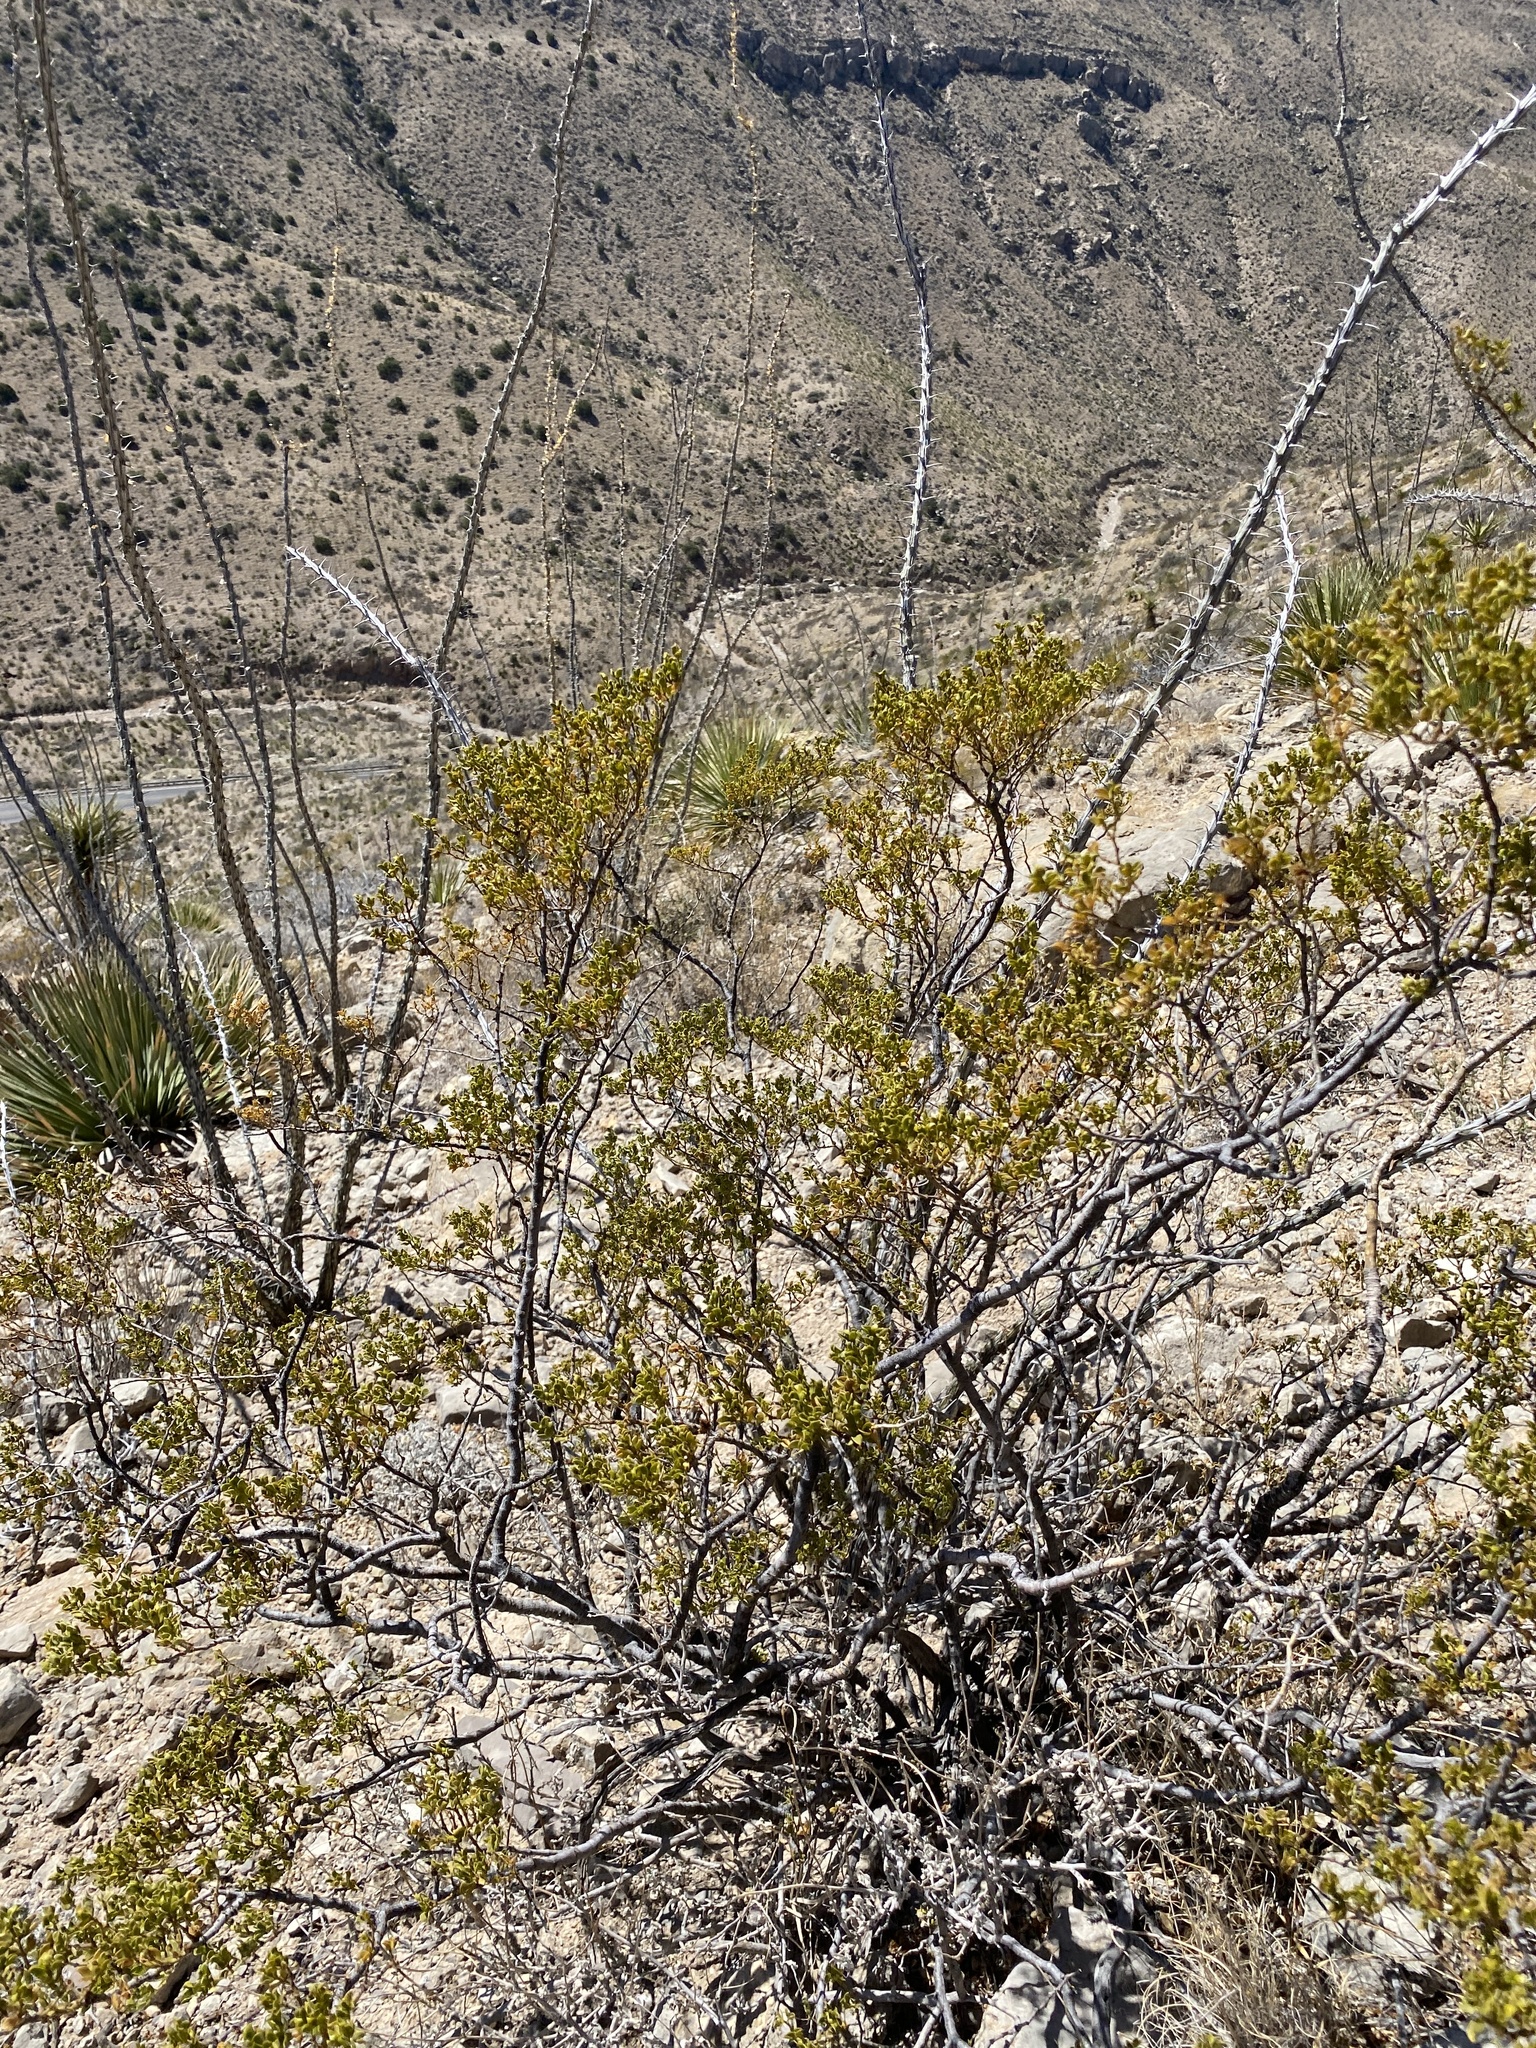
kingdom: Plantae
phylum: Tracheophyta
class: Magnoliopsida
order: Zygophyllales
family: Zygophyllaceae
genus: Larrea
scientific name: Larrea tridentata
